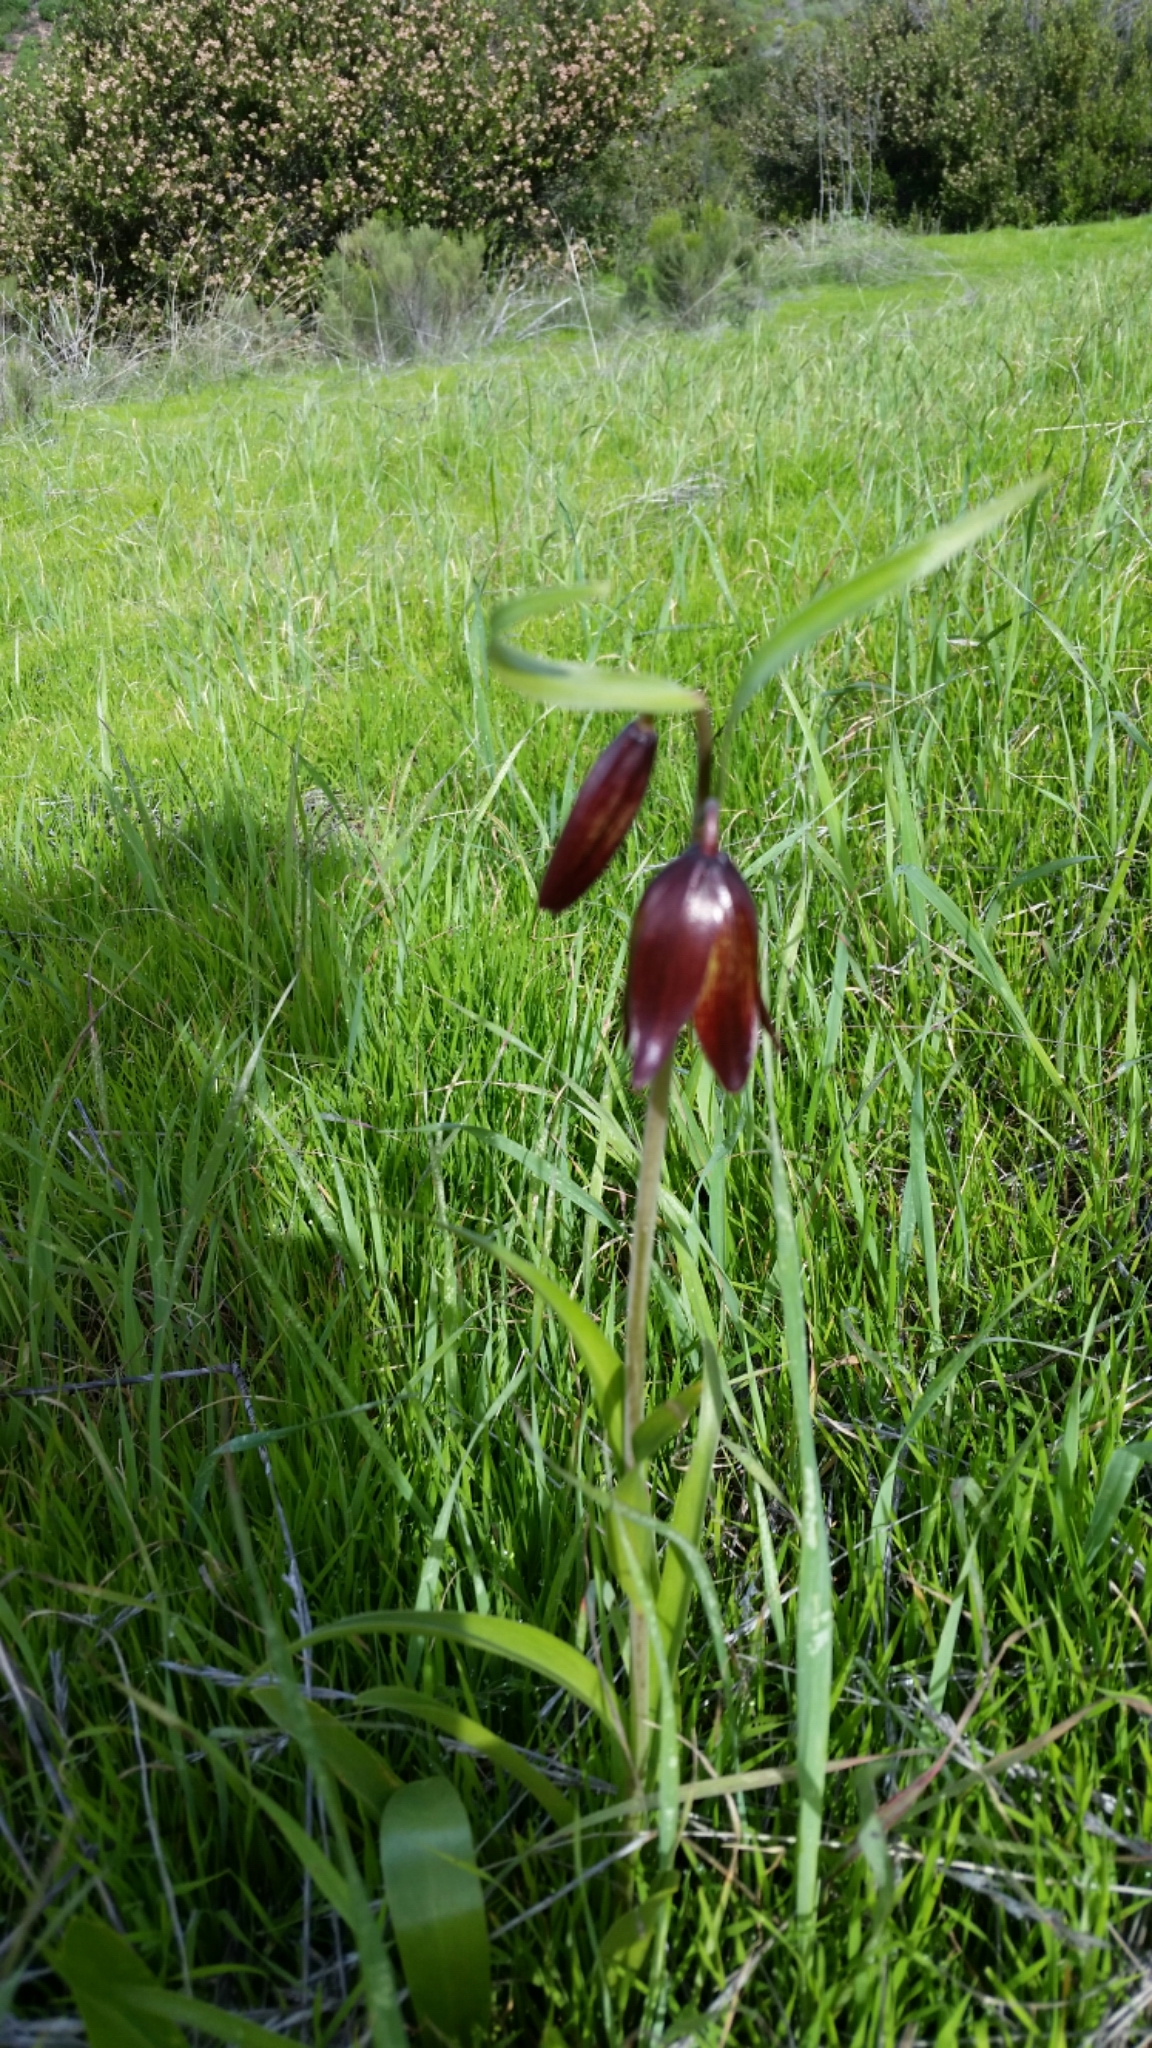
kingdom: Plantae
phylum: Tracheophyta
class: Liliopsida
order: Liliales
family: Liliaceae
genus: Fritillaria
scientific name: Fritillaria biflora
